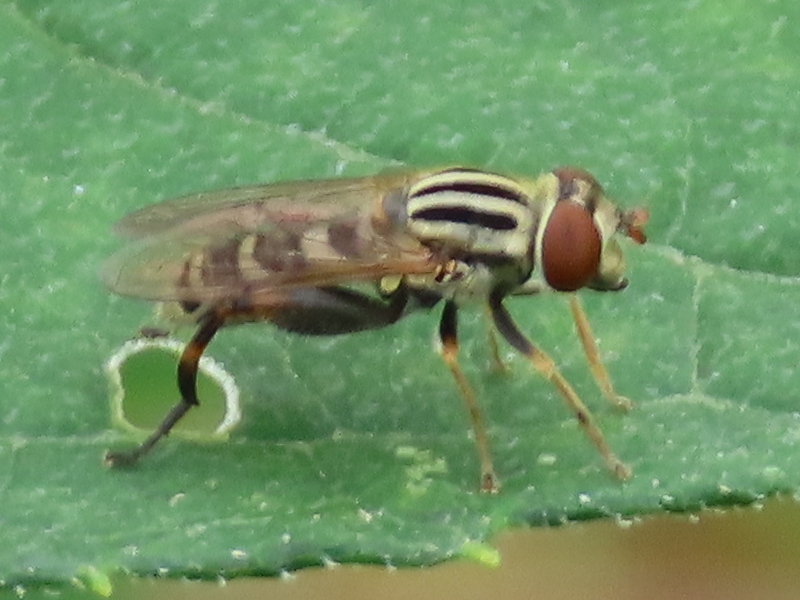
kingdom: Animalia
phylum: Arthropoda
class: Insecta
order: Diptera
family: Syrphidae
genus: Anasimyia
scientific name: Anasimyia chrysostomus
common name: Lump-legged swamp fly
